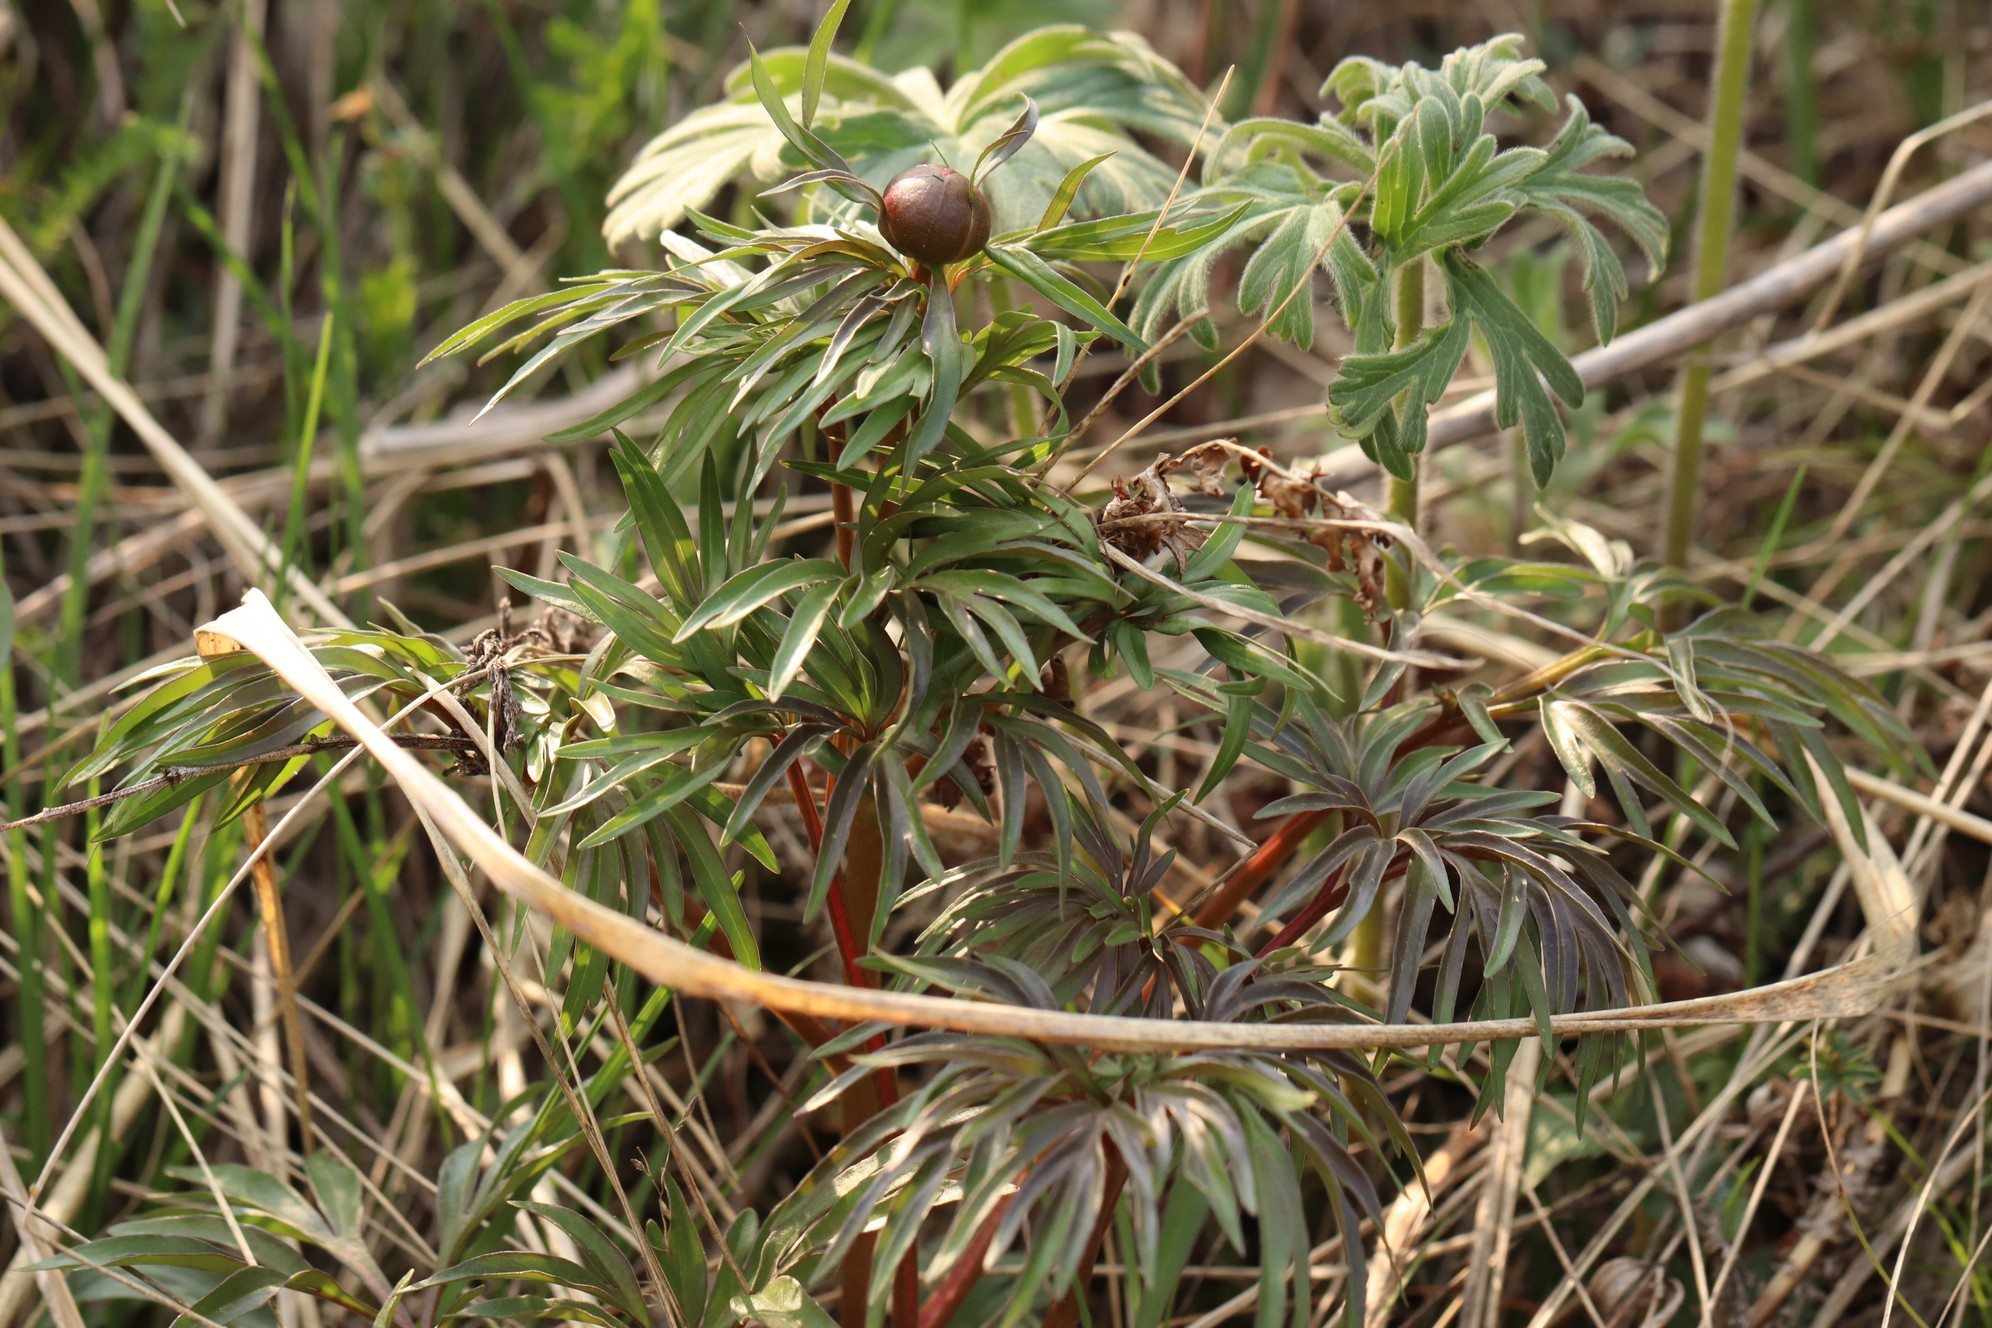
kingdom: Plantae
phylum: Tracheophyta
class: Magnoliopsida
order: Saxifragales
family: Paeoniaceae
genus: Paeonia
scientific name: Paeonia
